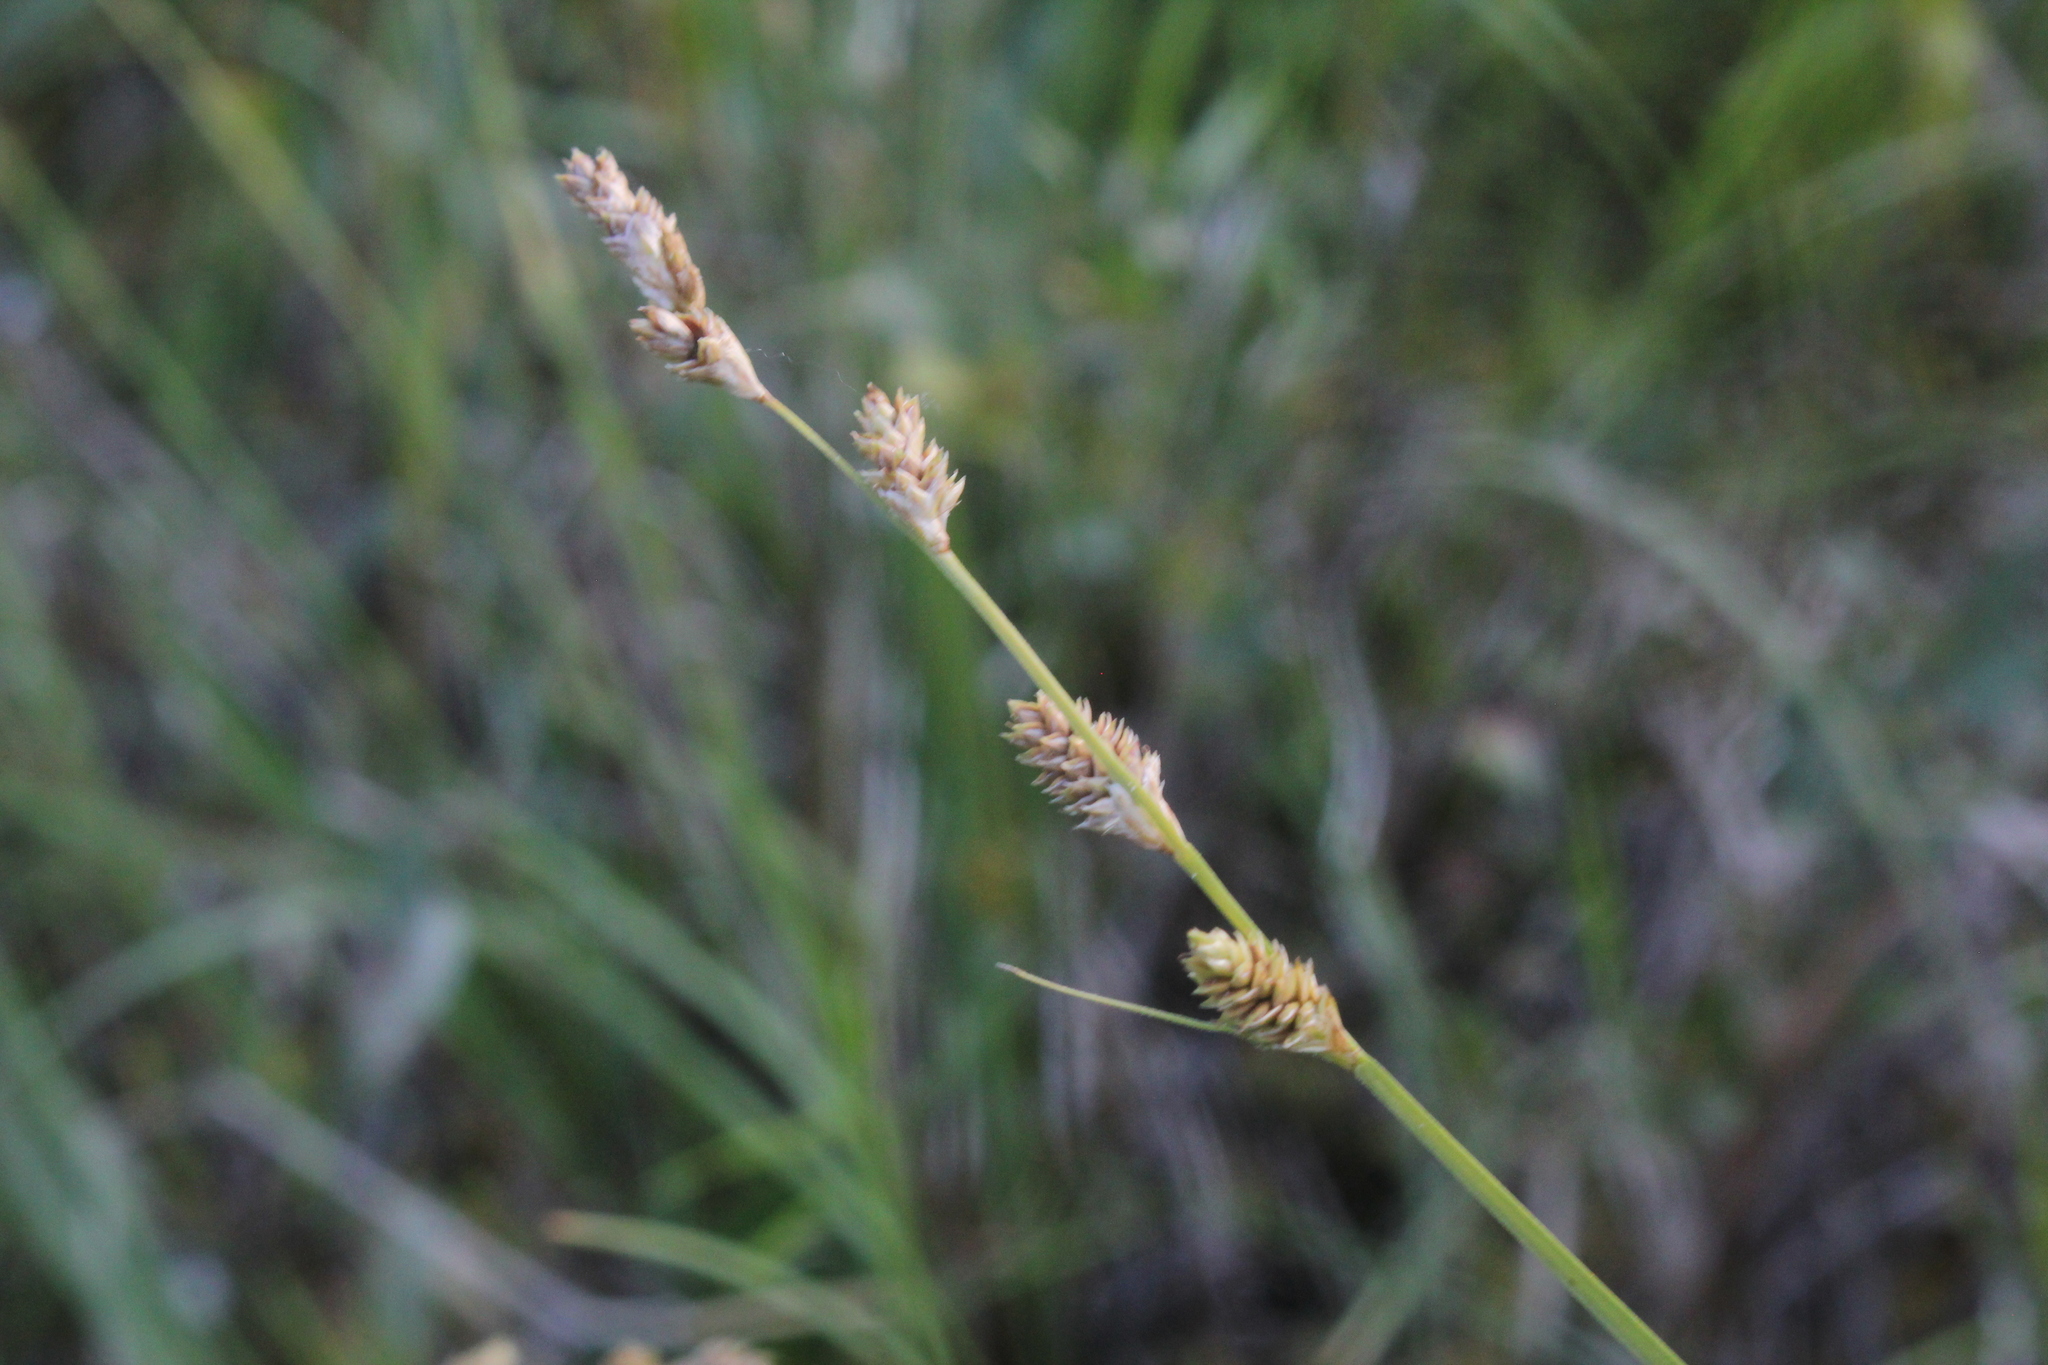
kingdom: Plantae
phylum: Tracheophyta
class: Liliopsida
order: Poales
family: Cyperaceae
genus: Carex
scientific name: Carex canescens
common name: White sedge
